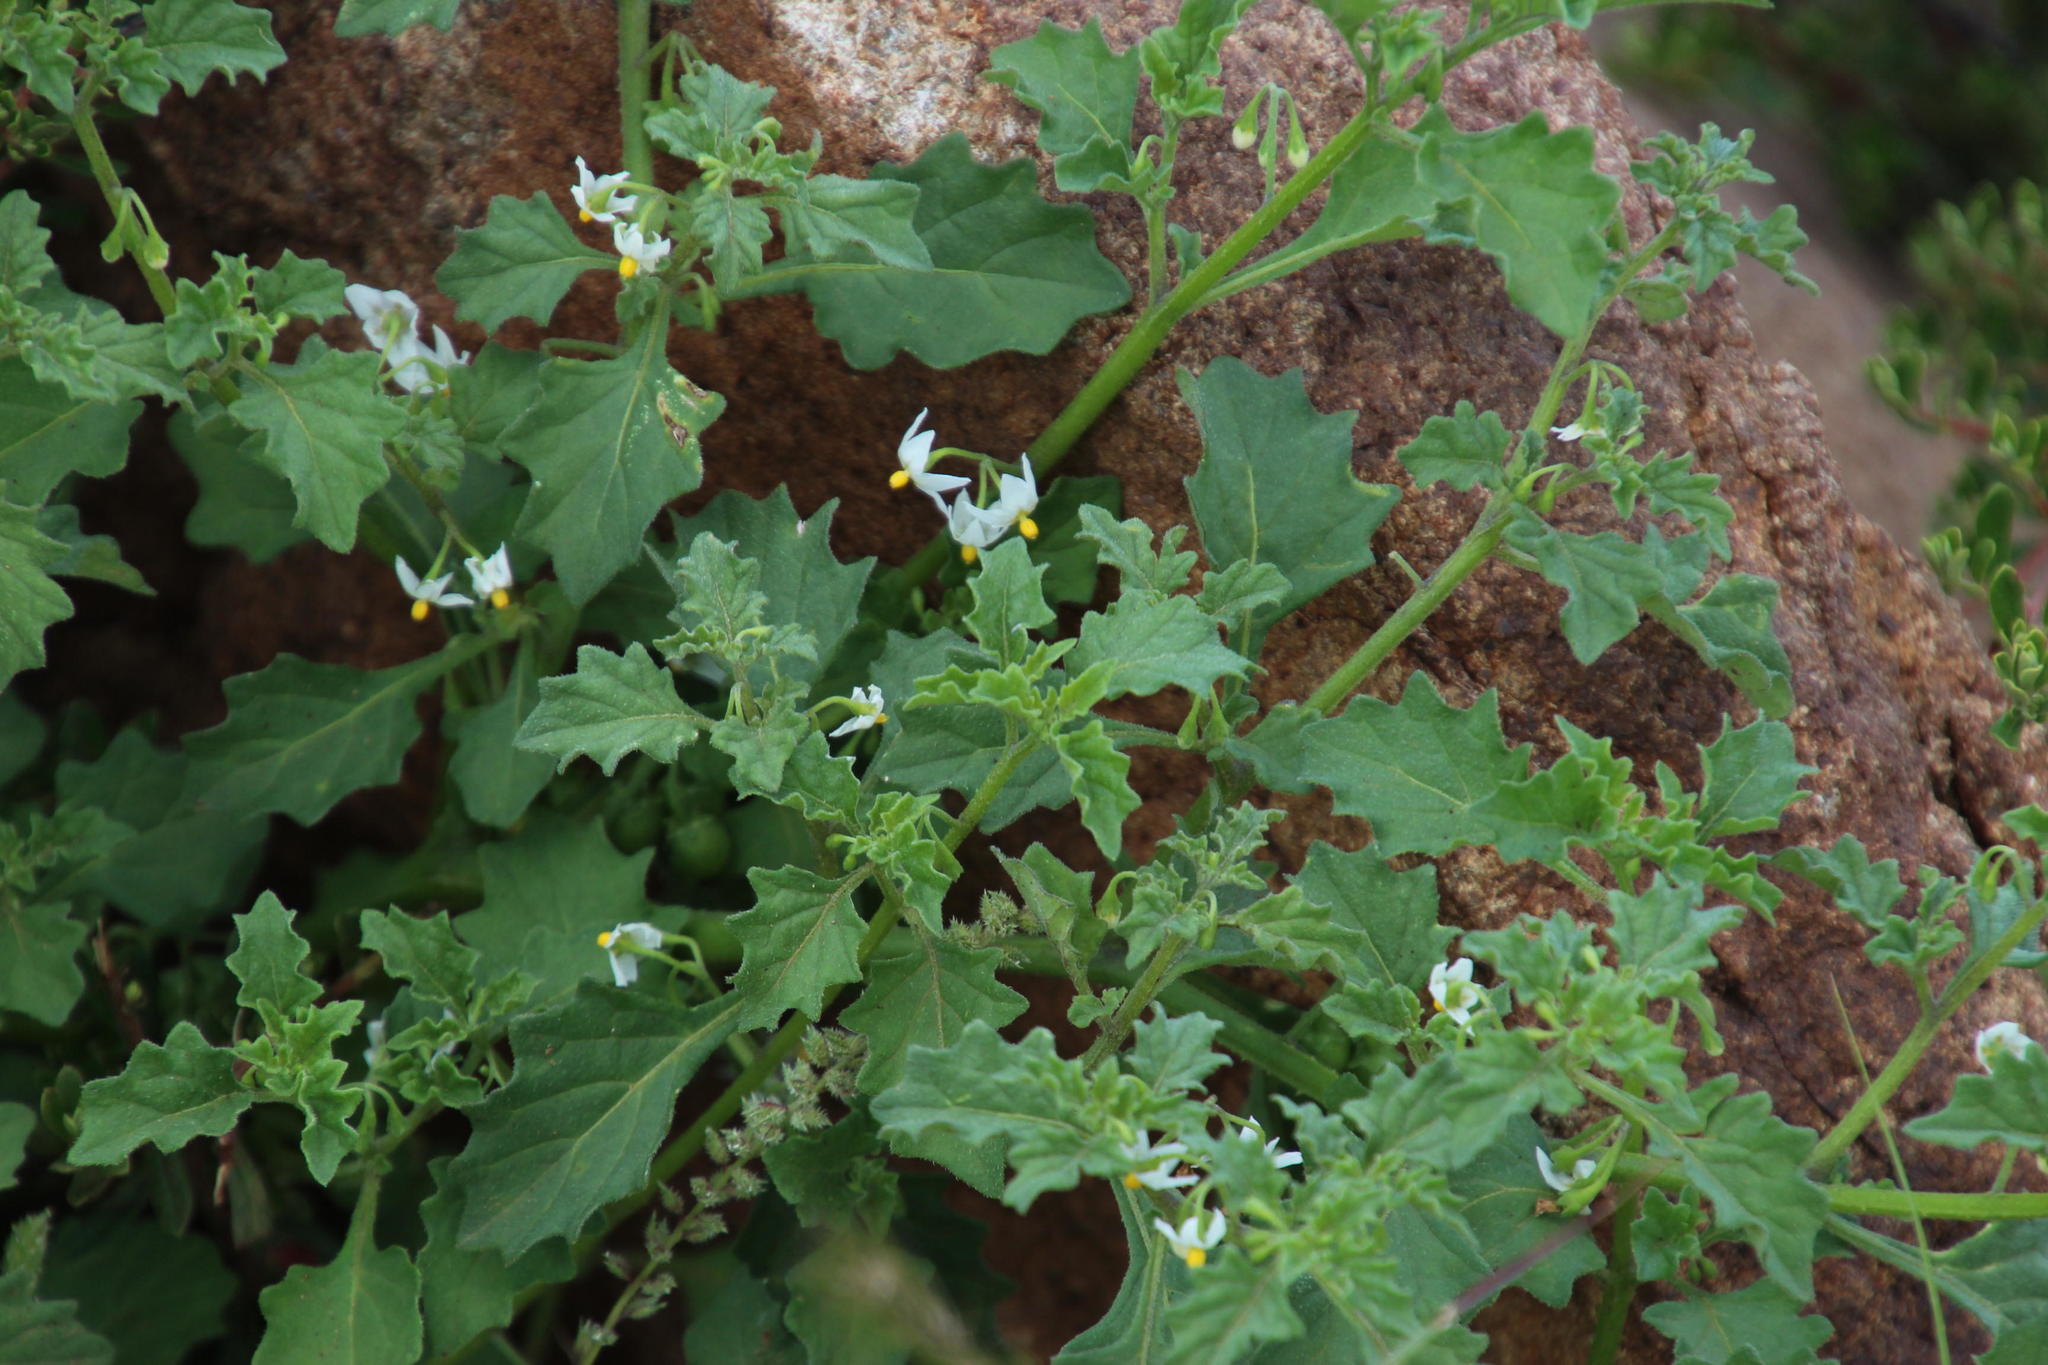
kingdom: Plantae
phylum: Tracheophyta
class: Magnoliopsida
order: Solanales
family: Solanaceae
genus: Solanum
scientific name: Solanum retroflexum
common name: Wonderberry
